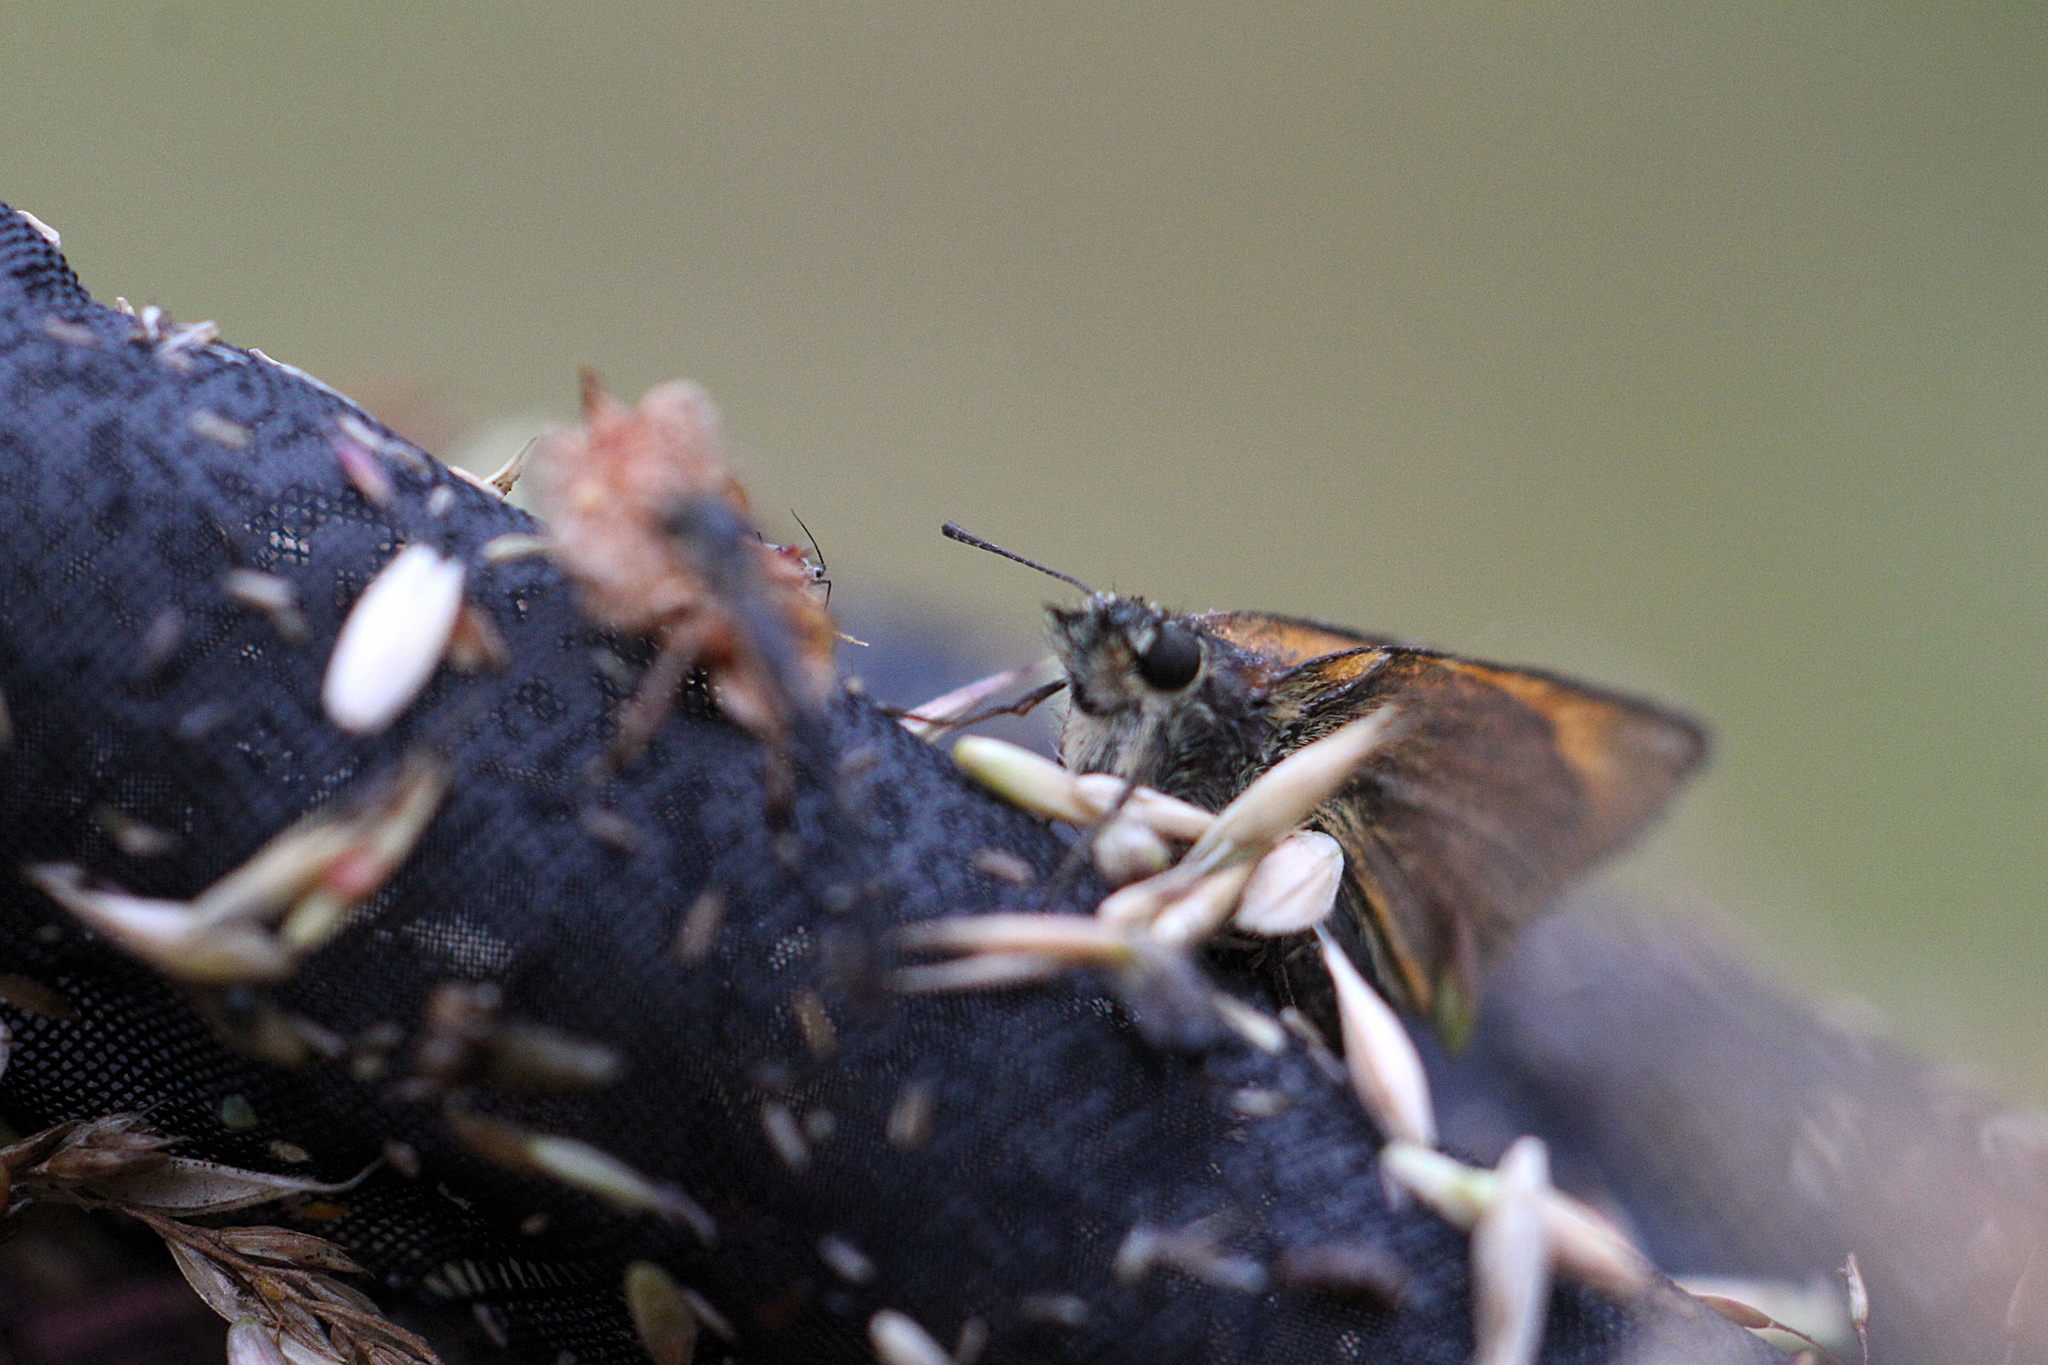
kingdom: Animalia
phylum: Arthropoda
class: Insecta
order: Lepidoptera
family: Hesperiidae
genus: Thymelicus
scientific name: Thymelicus sylvestris
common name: Small skipper
